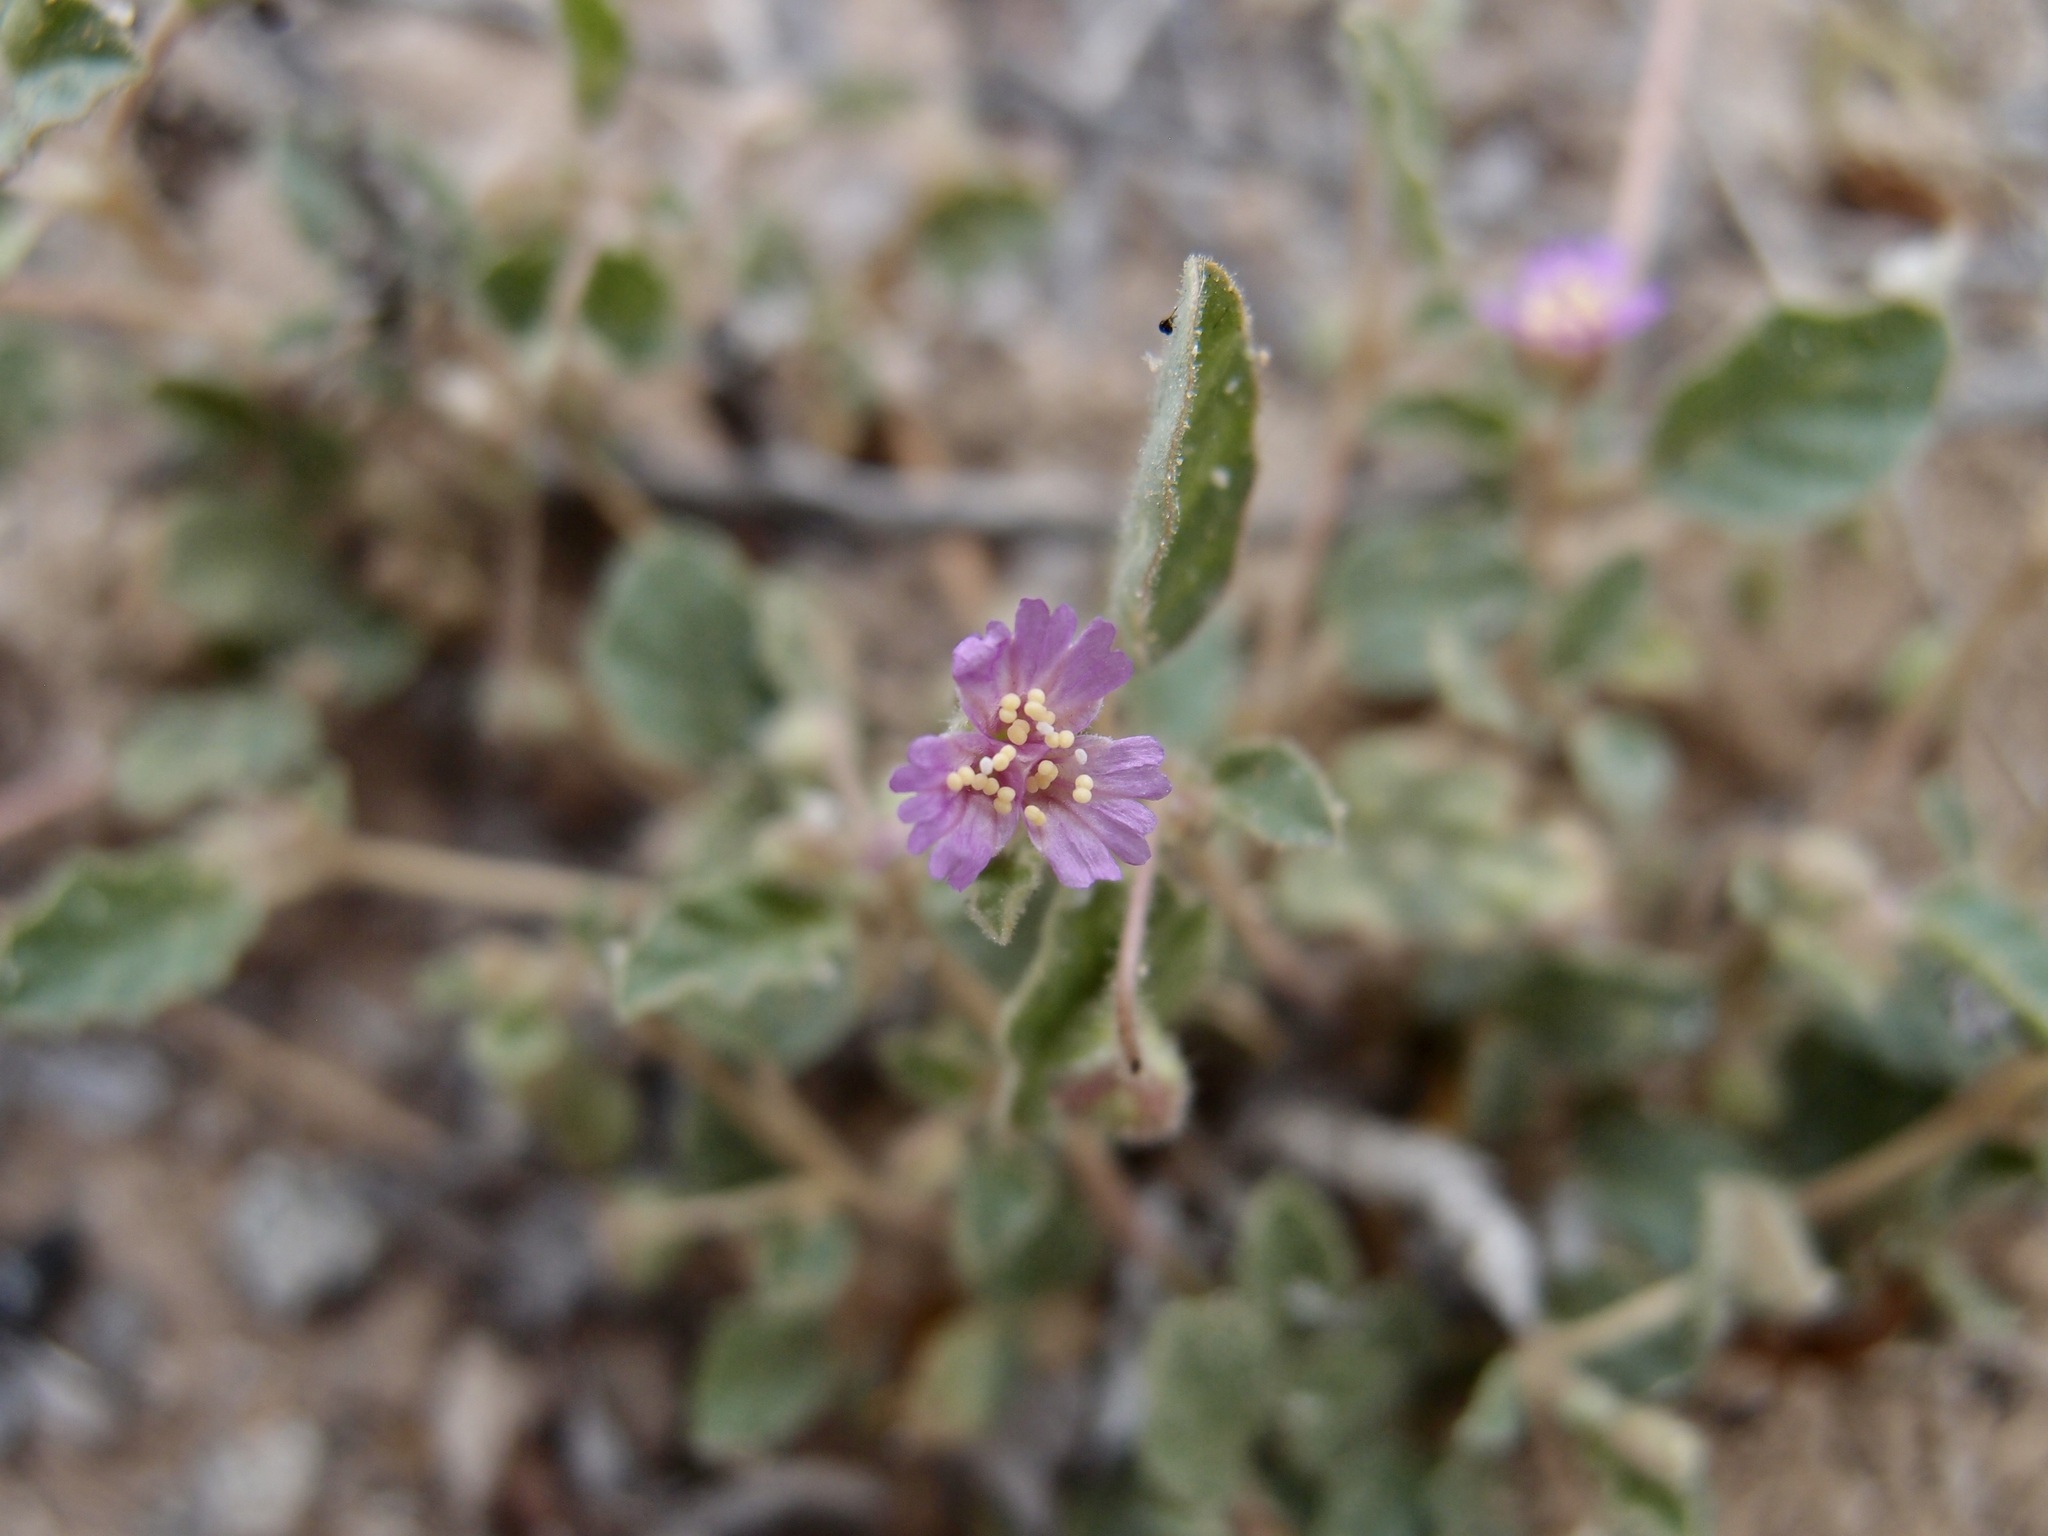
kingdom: Plantae
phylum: Tracheophyta
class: Magnoliopsida
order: Caryophyllales
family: Nyctaginaceae
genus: Allionia
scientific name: Allionia incarnata
